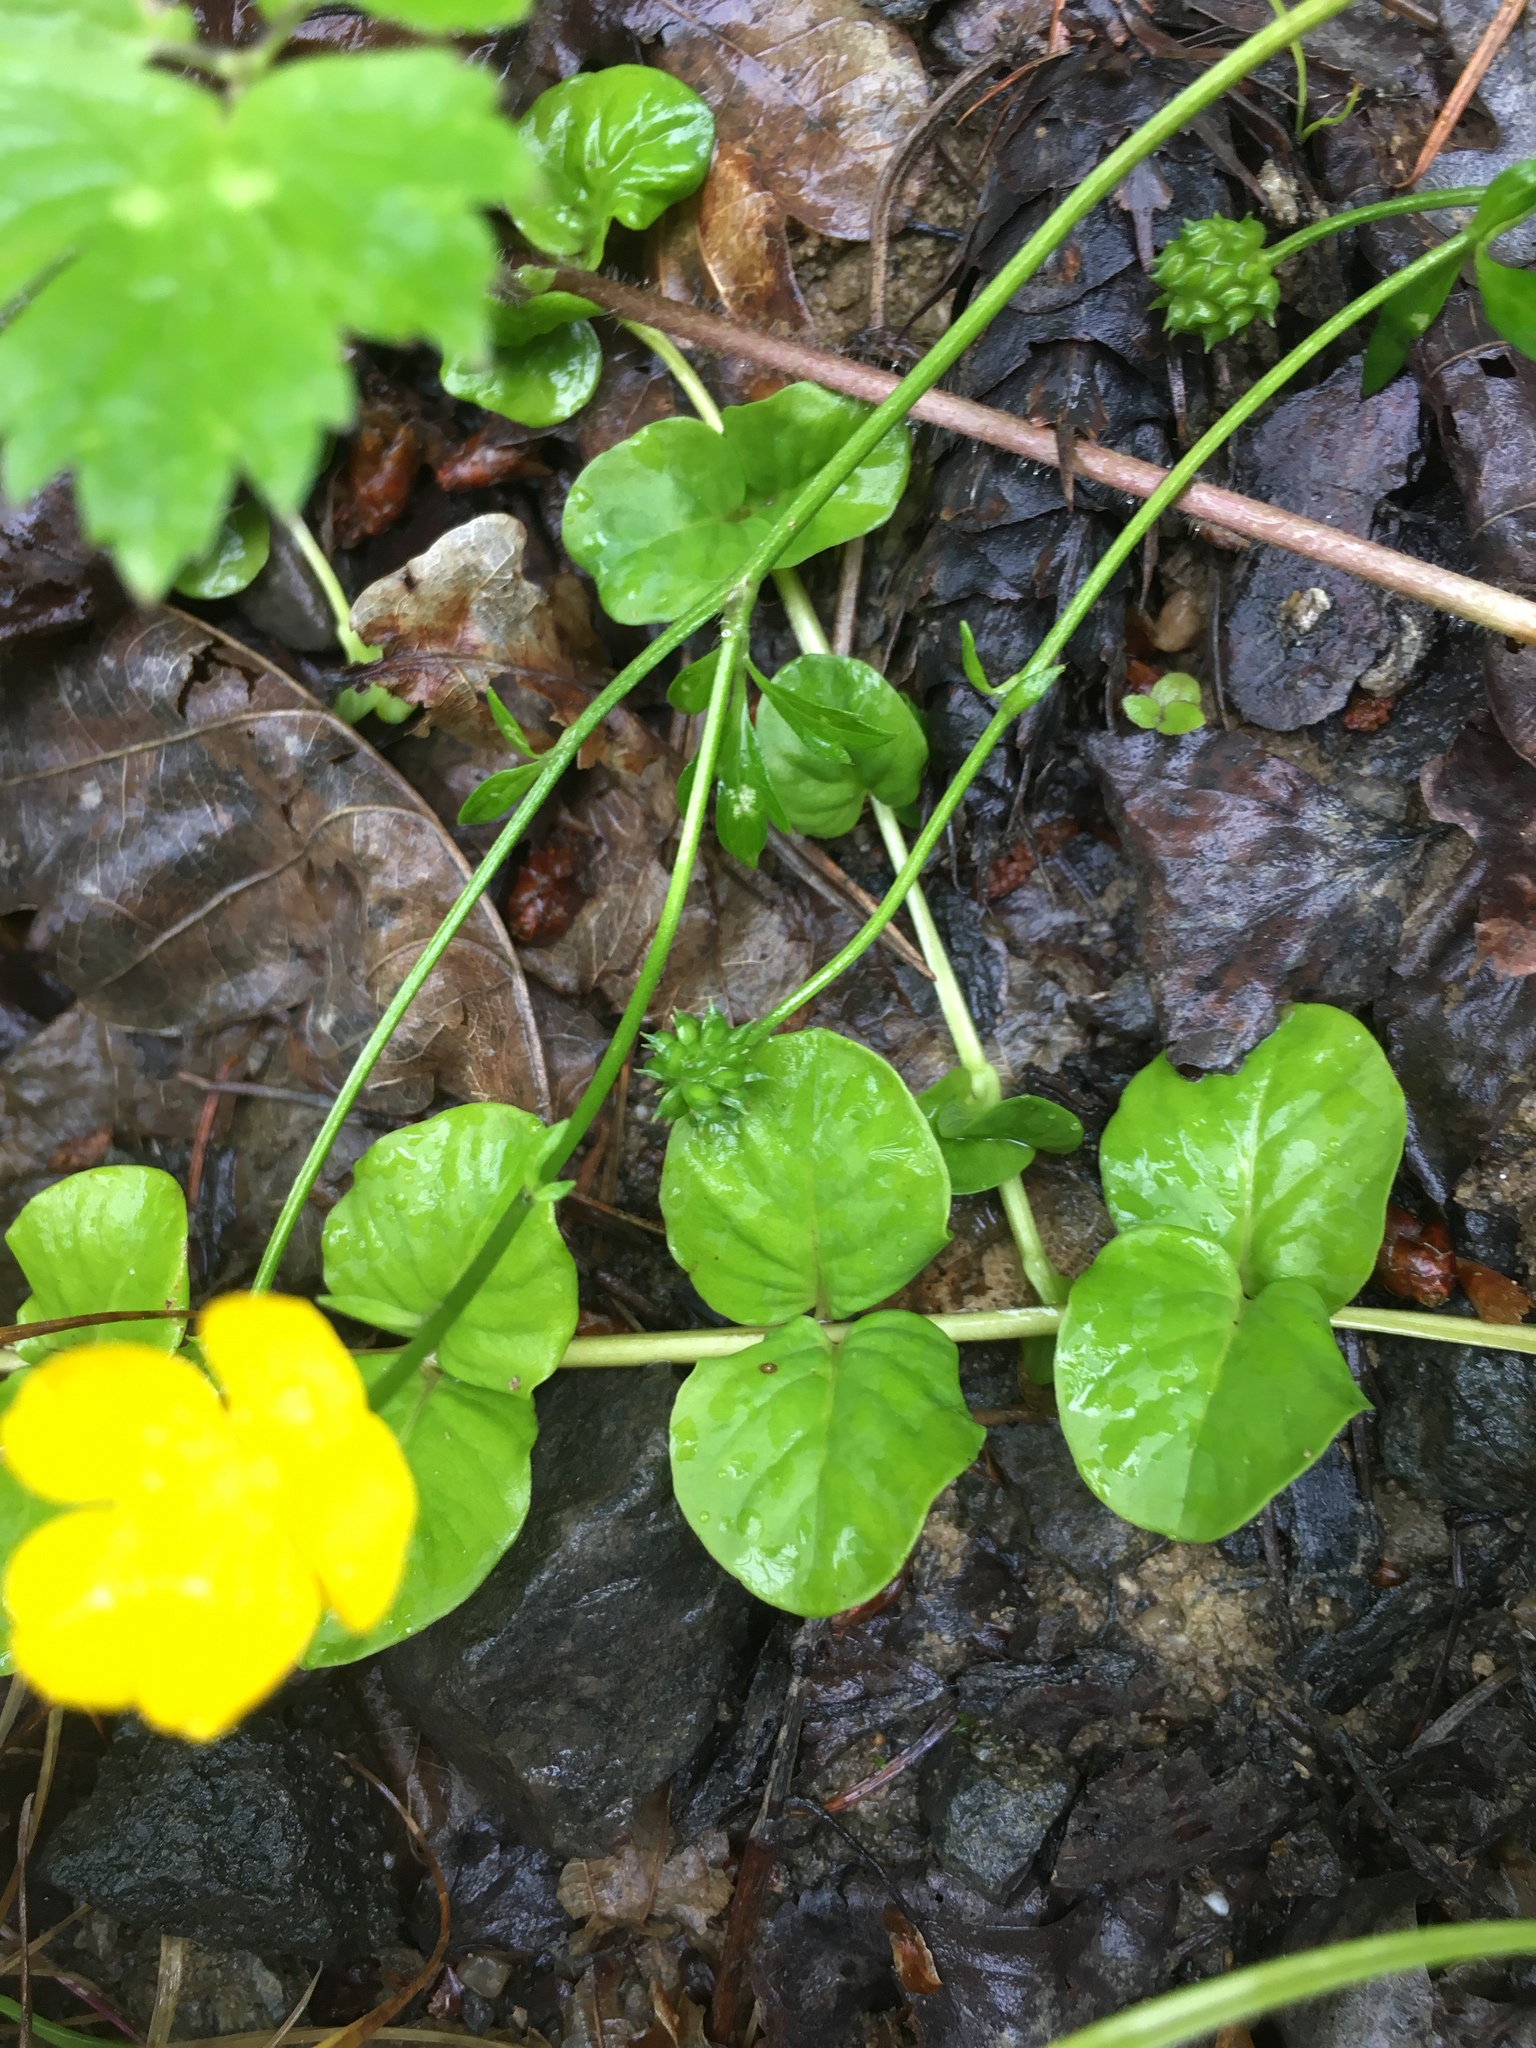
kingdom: Plantae
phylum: Tracheophyta
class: Magnoliopsida
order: Ericales
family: Primulaceae
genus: Lysimachia
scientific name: Lysimachia nummularia
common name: Moneywort
